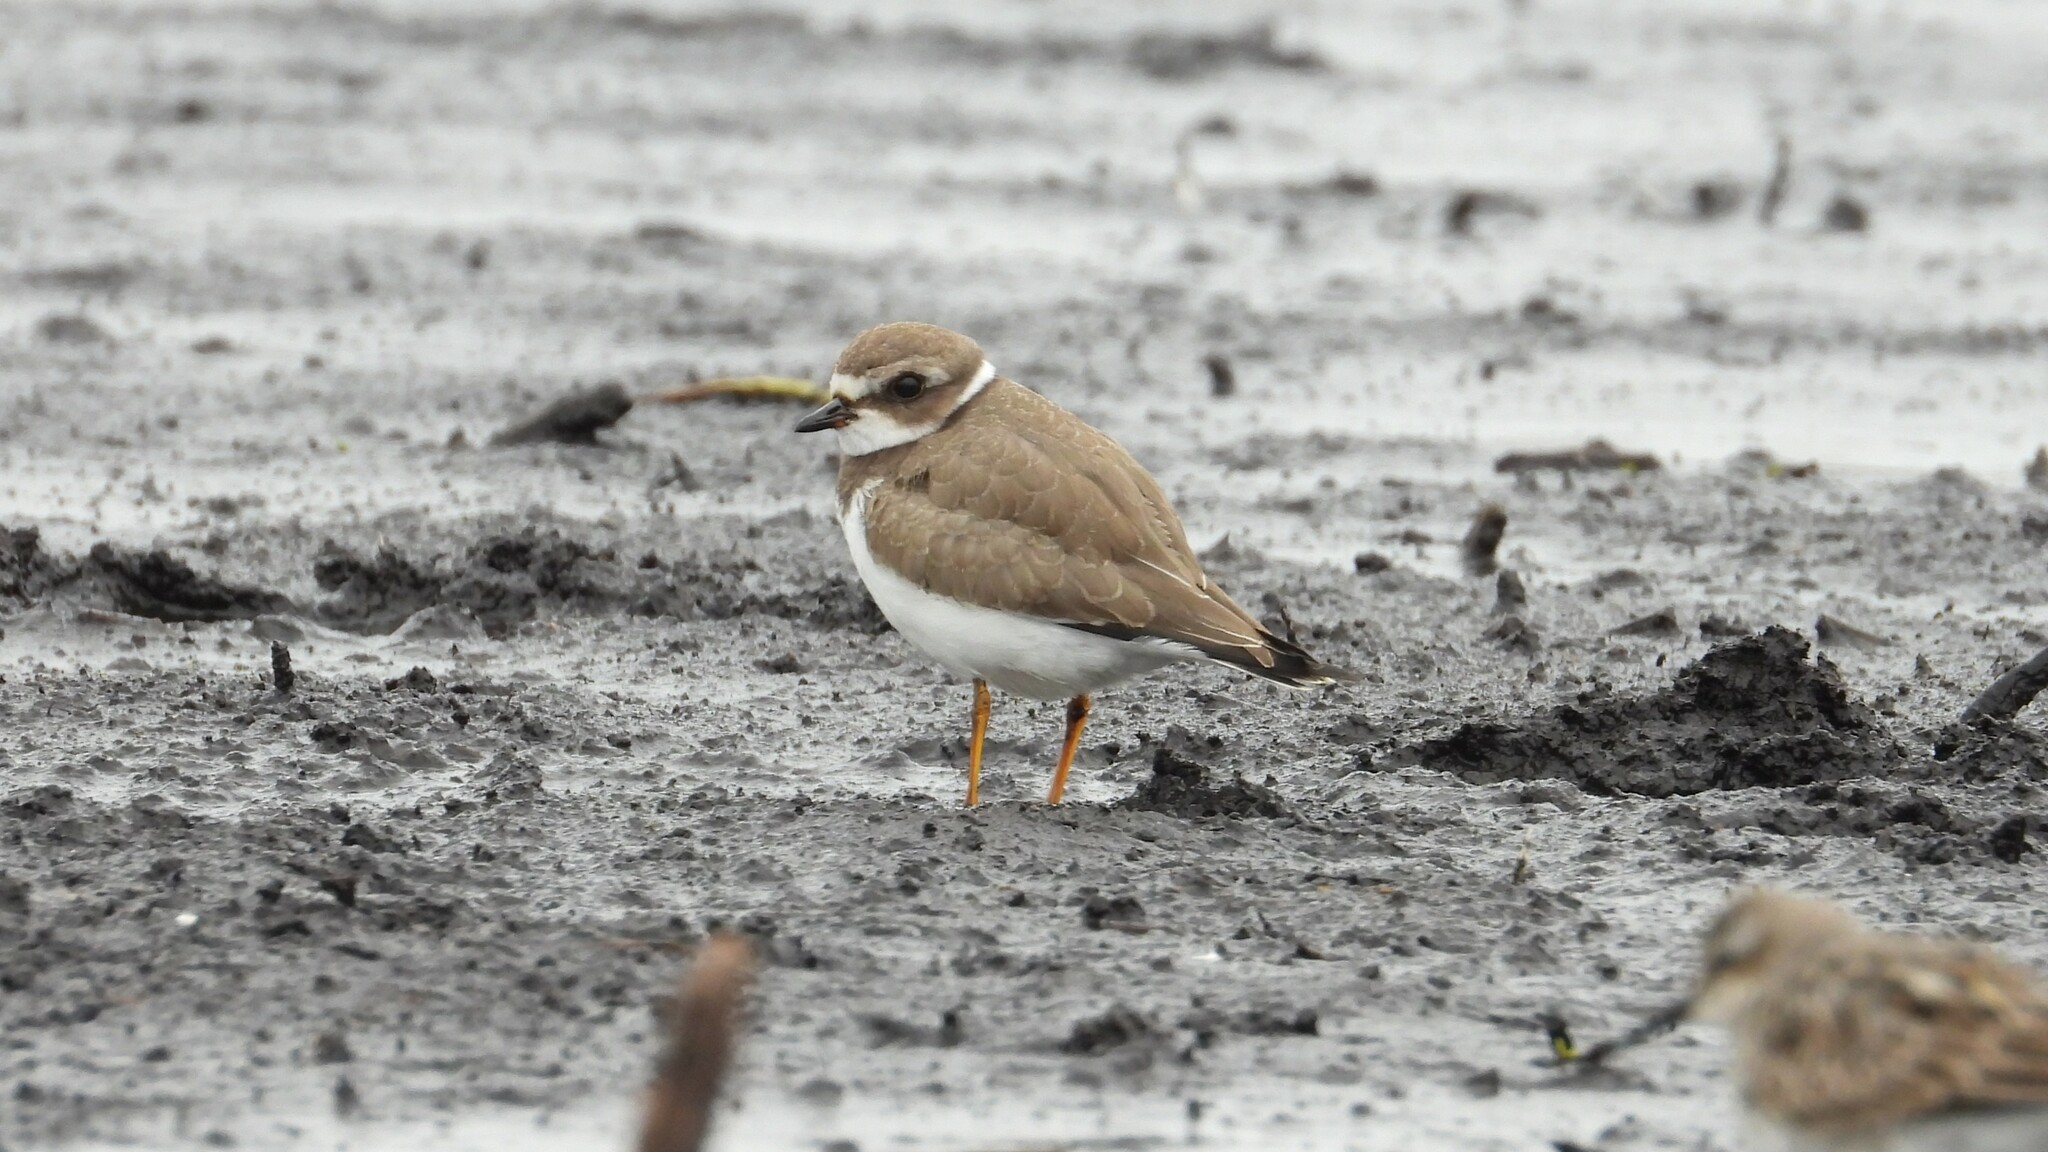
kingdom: Animalia
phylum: Chordata
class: Aves
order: Charadriiformes
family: Charadriidae
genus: Charadrius
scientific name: Charadrius semipalmatus
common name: Semipalmated plover
